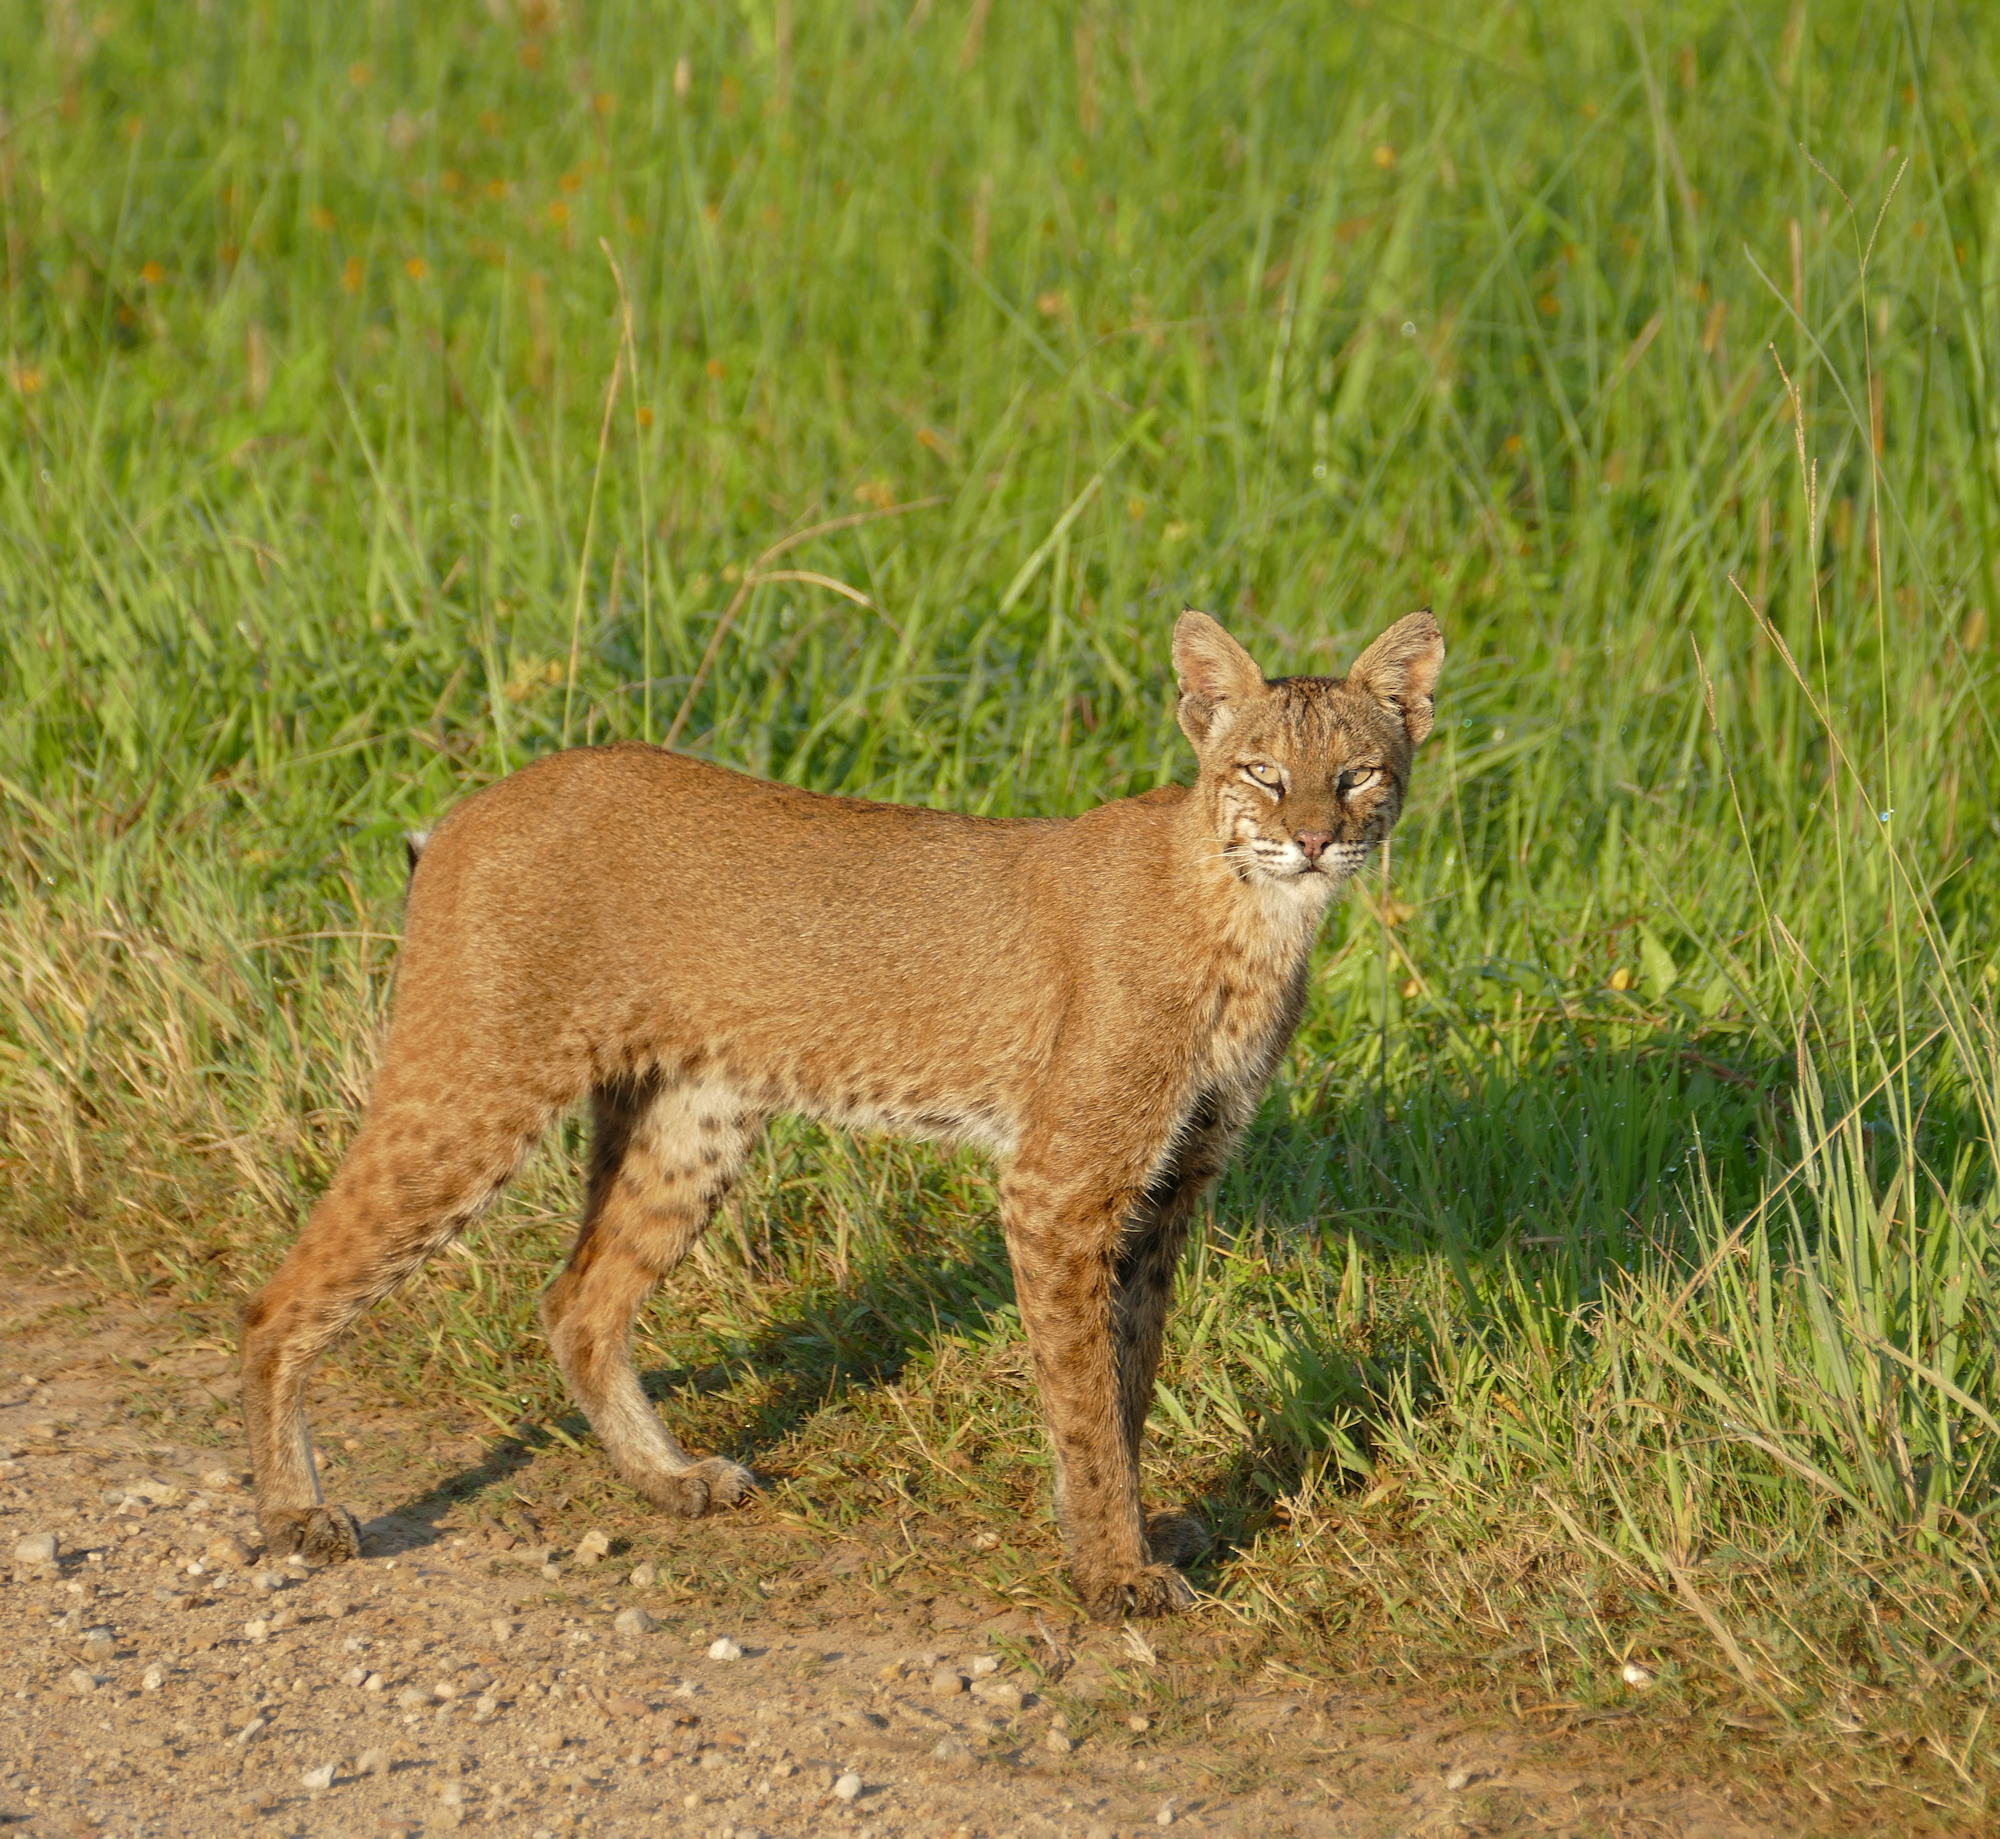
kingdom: Animalia
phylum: Chordata
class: Mammalia
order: Carnivora
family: Felidae
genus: Lynx
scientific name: Lynx rufus
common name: Bobcat
